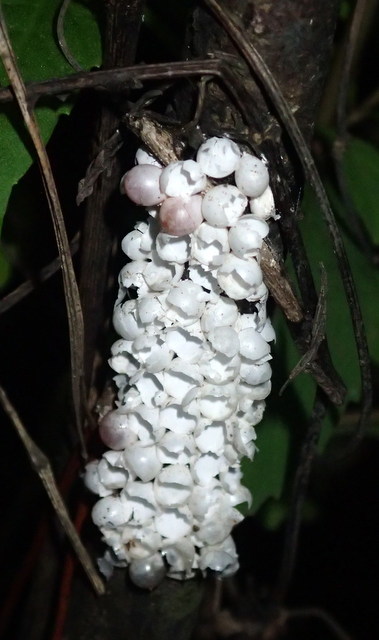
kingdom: Animalia
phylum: Mollusca
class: Gastropoda
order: Architaenioglossa
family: Ampullariidae
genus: Pomacea
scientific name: Pomacea paludosa
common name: Florida applesnail
